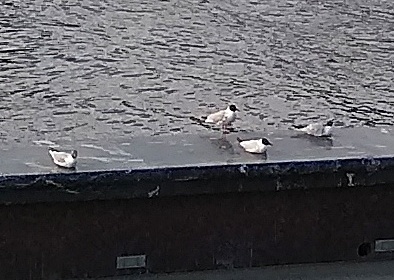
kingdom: Animalia
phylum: Chordata
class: Aves
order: Charadriiformes
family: Laridae
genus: Chroicocephalus
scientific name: Chroicocephalus ridibundus
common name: Black-headed gull
